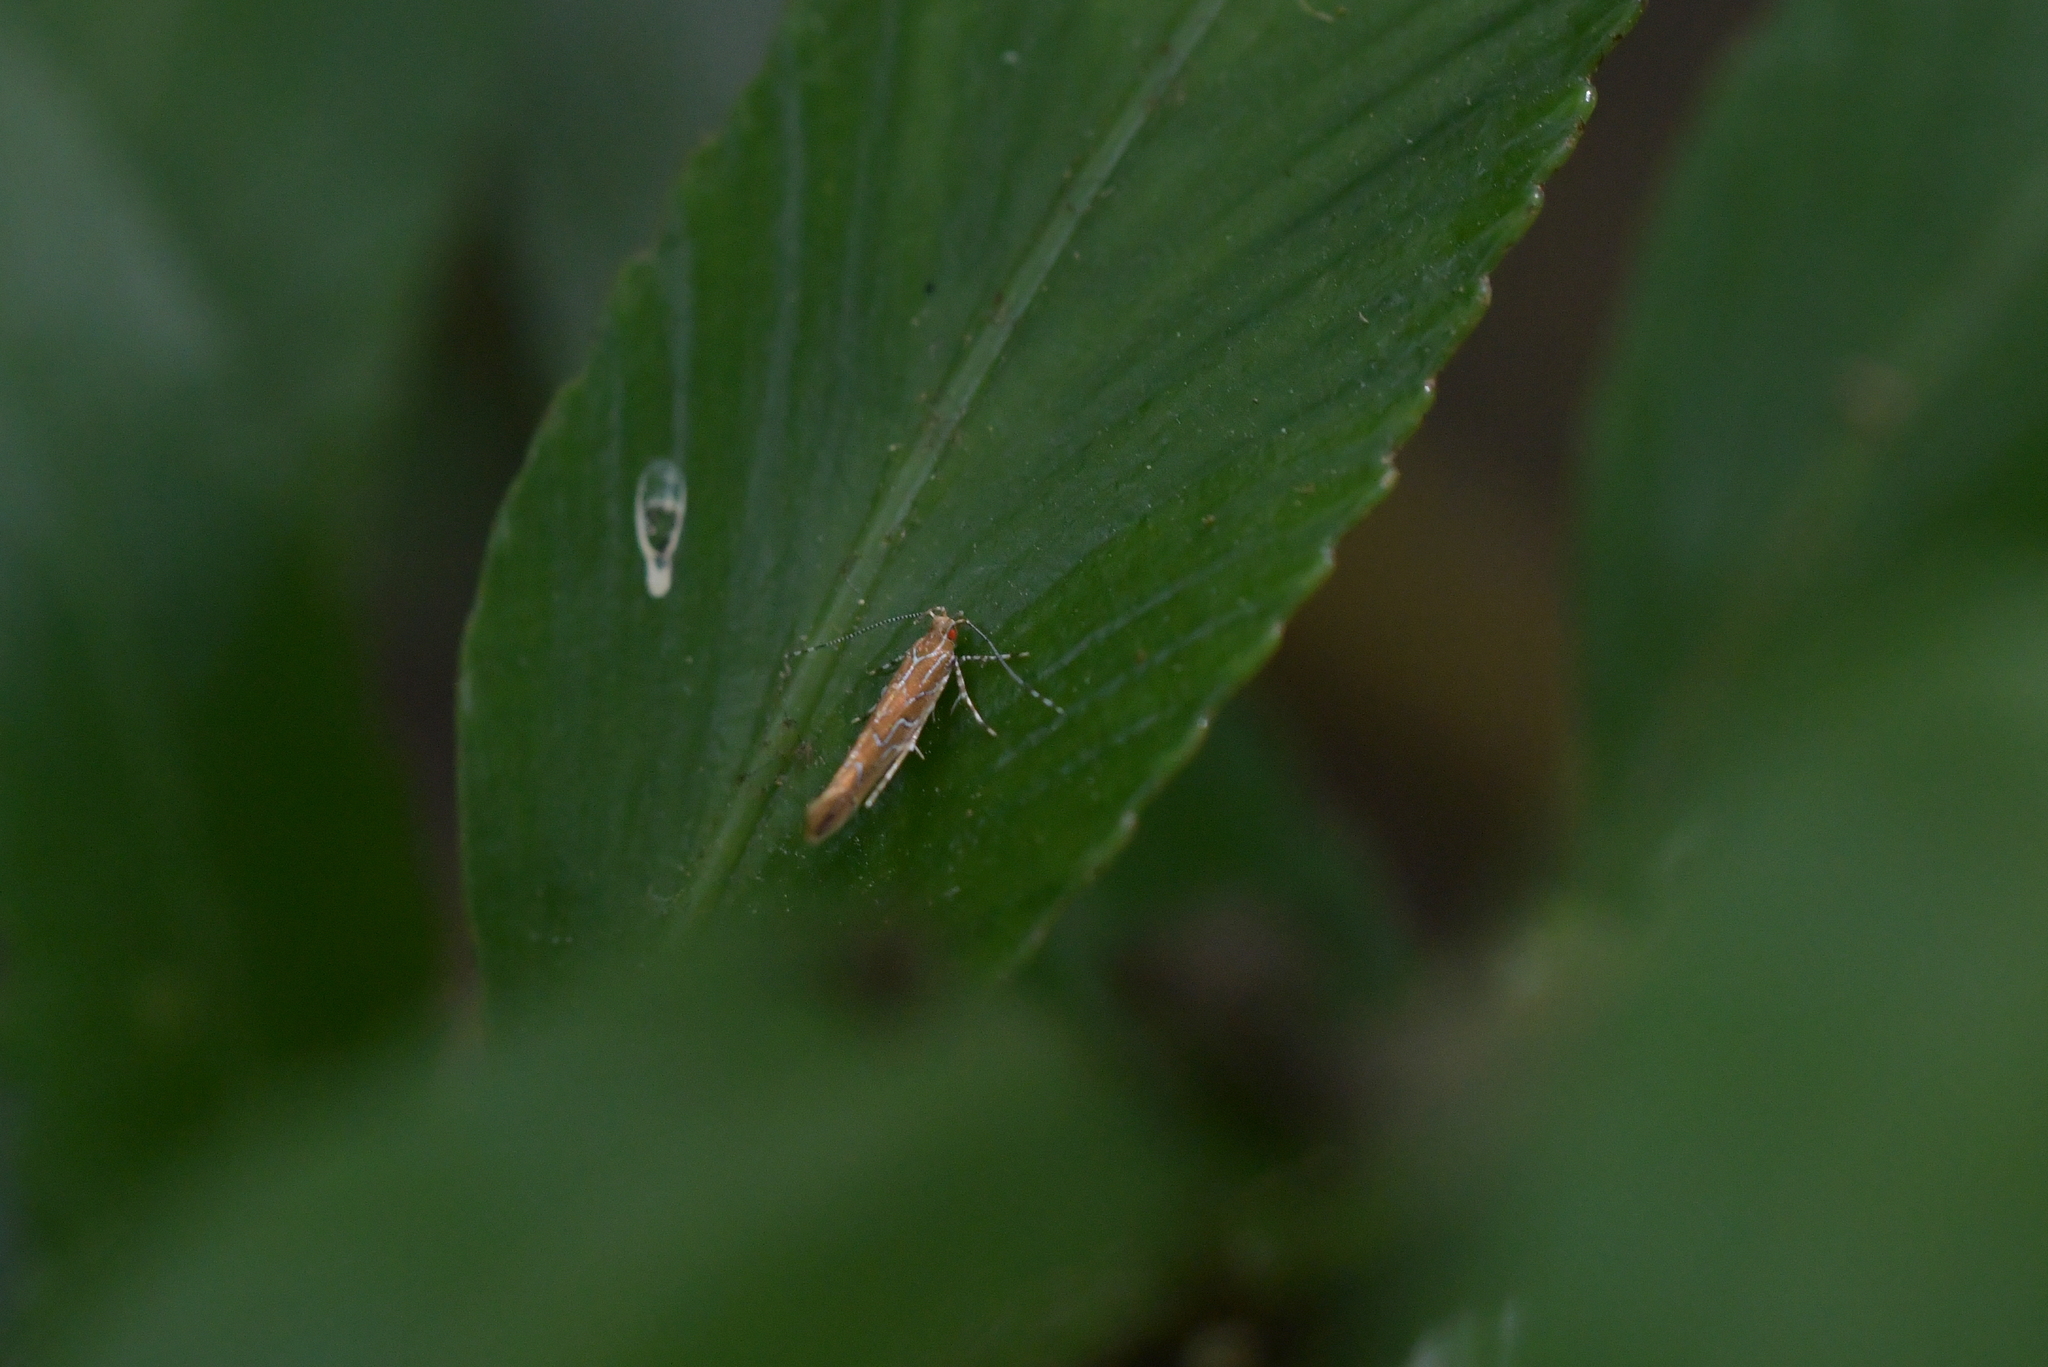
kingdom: Animalia
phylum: Arthropoda
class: Insecta
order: Lepidoptera
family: Cosmopterigidae
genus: Pyroderces
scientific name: Pyroderces apparitella
